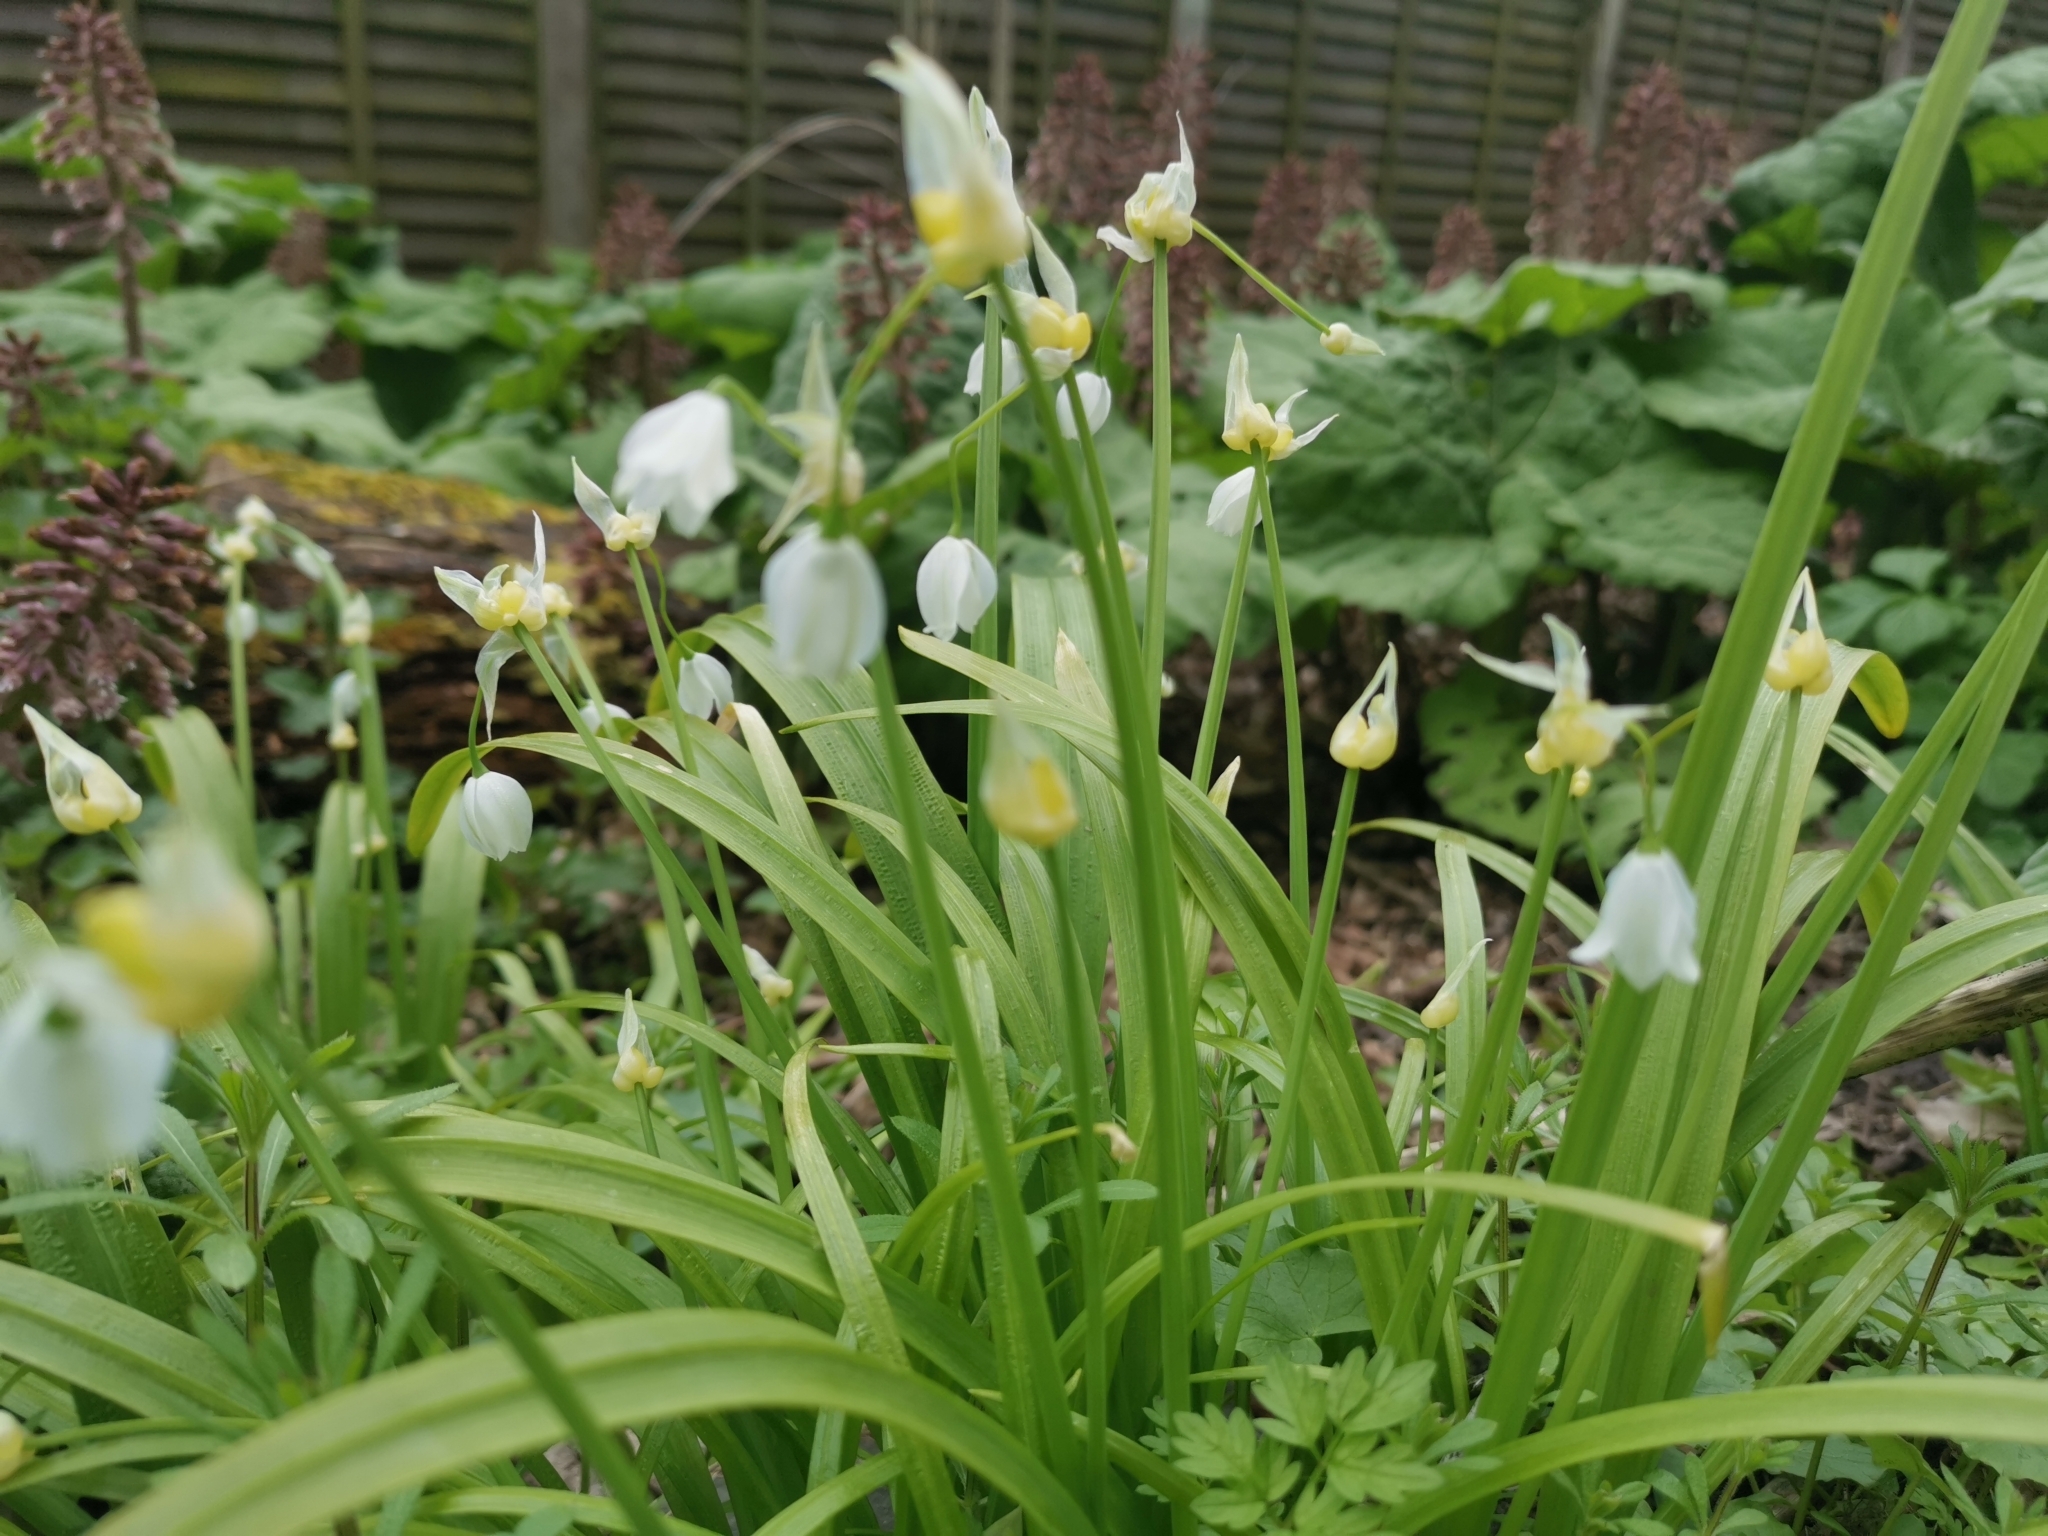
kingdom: Plantae
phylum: Tracheophyta
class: Liliopsida
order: Asparagales
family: Amaryllidaceae
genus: Allium
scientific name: Allium paradoxum
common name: Few-flowered garlic
